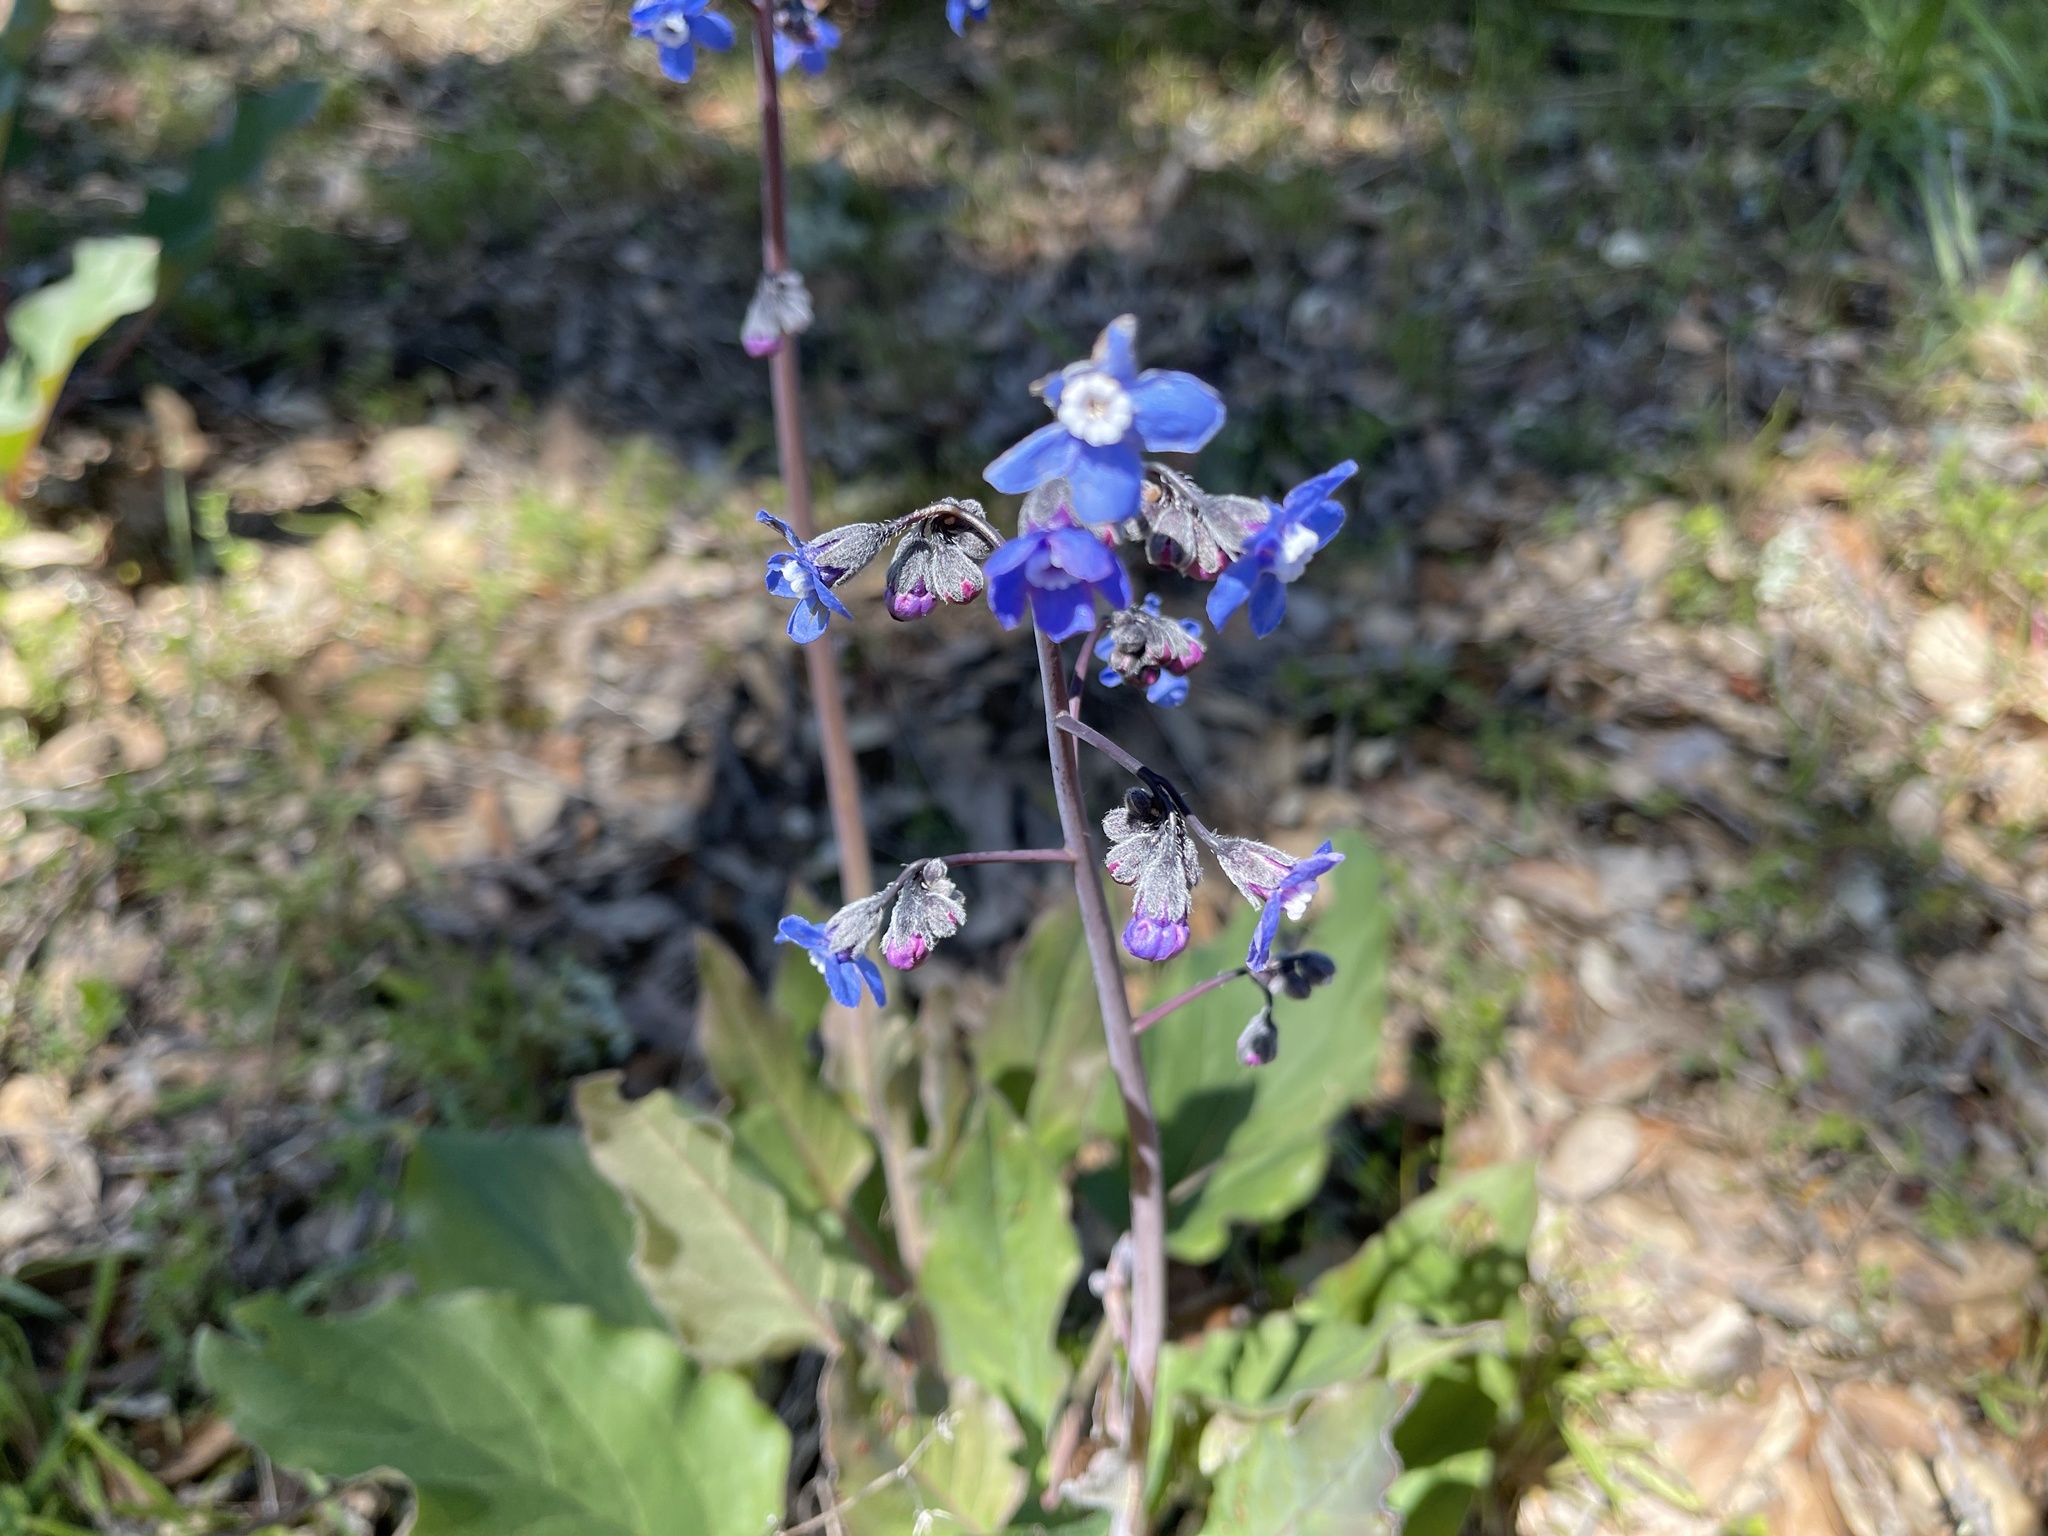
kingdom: Plantae
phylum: Tracheophyta
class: Magnoliopsida
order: Boraginales
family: Boraginaceae
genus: Adelinia
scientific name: Adelinia grande
